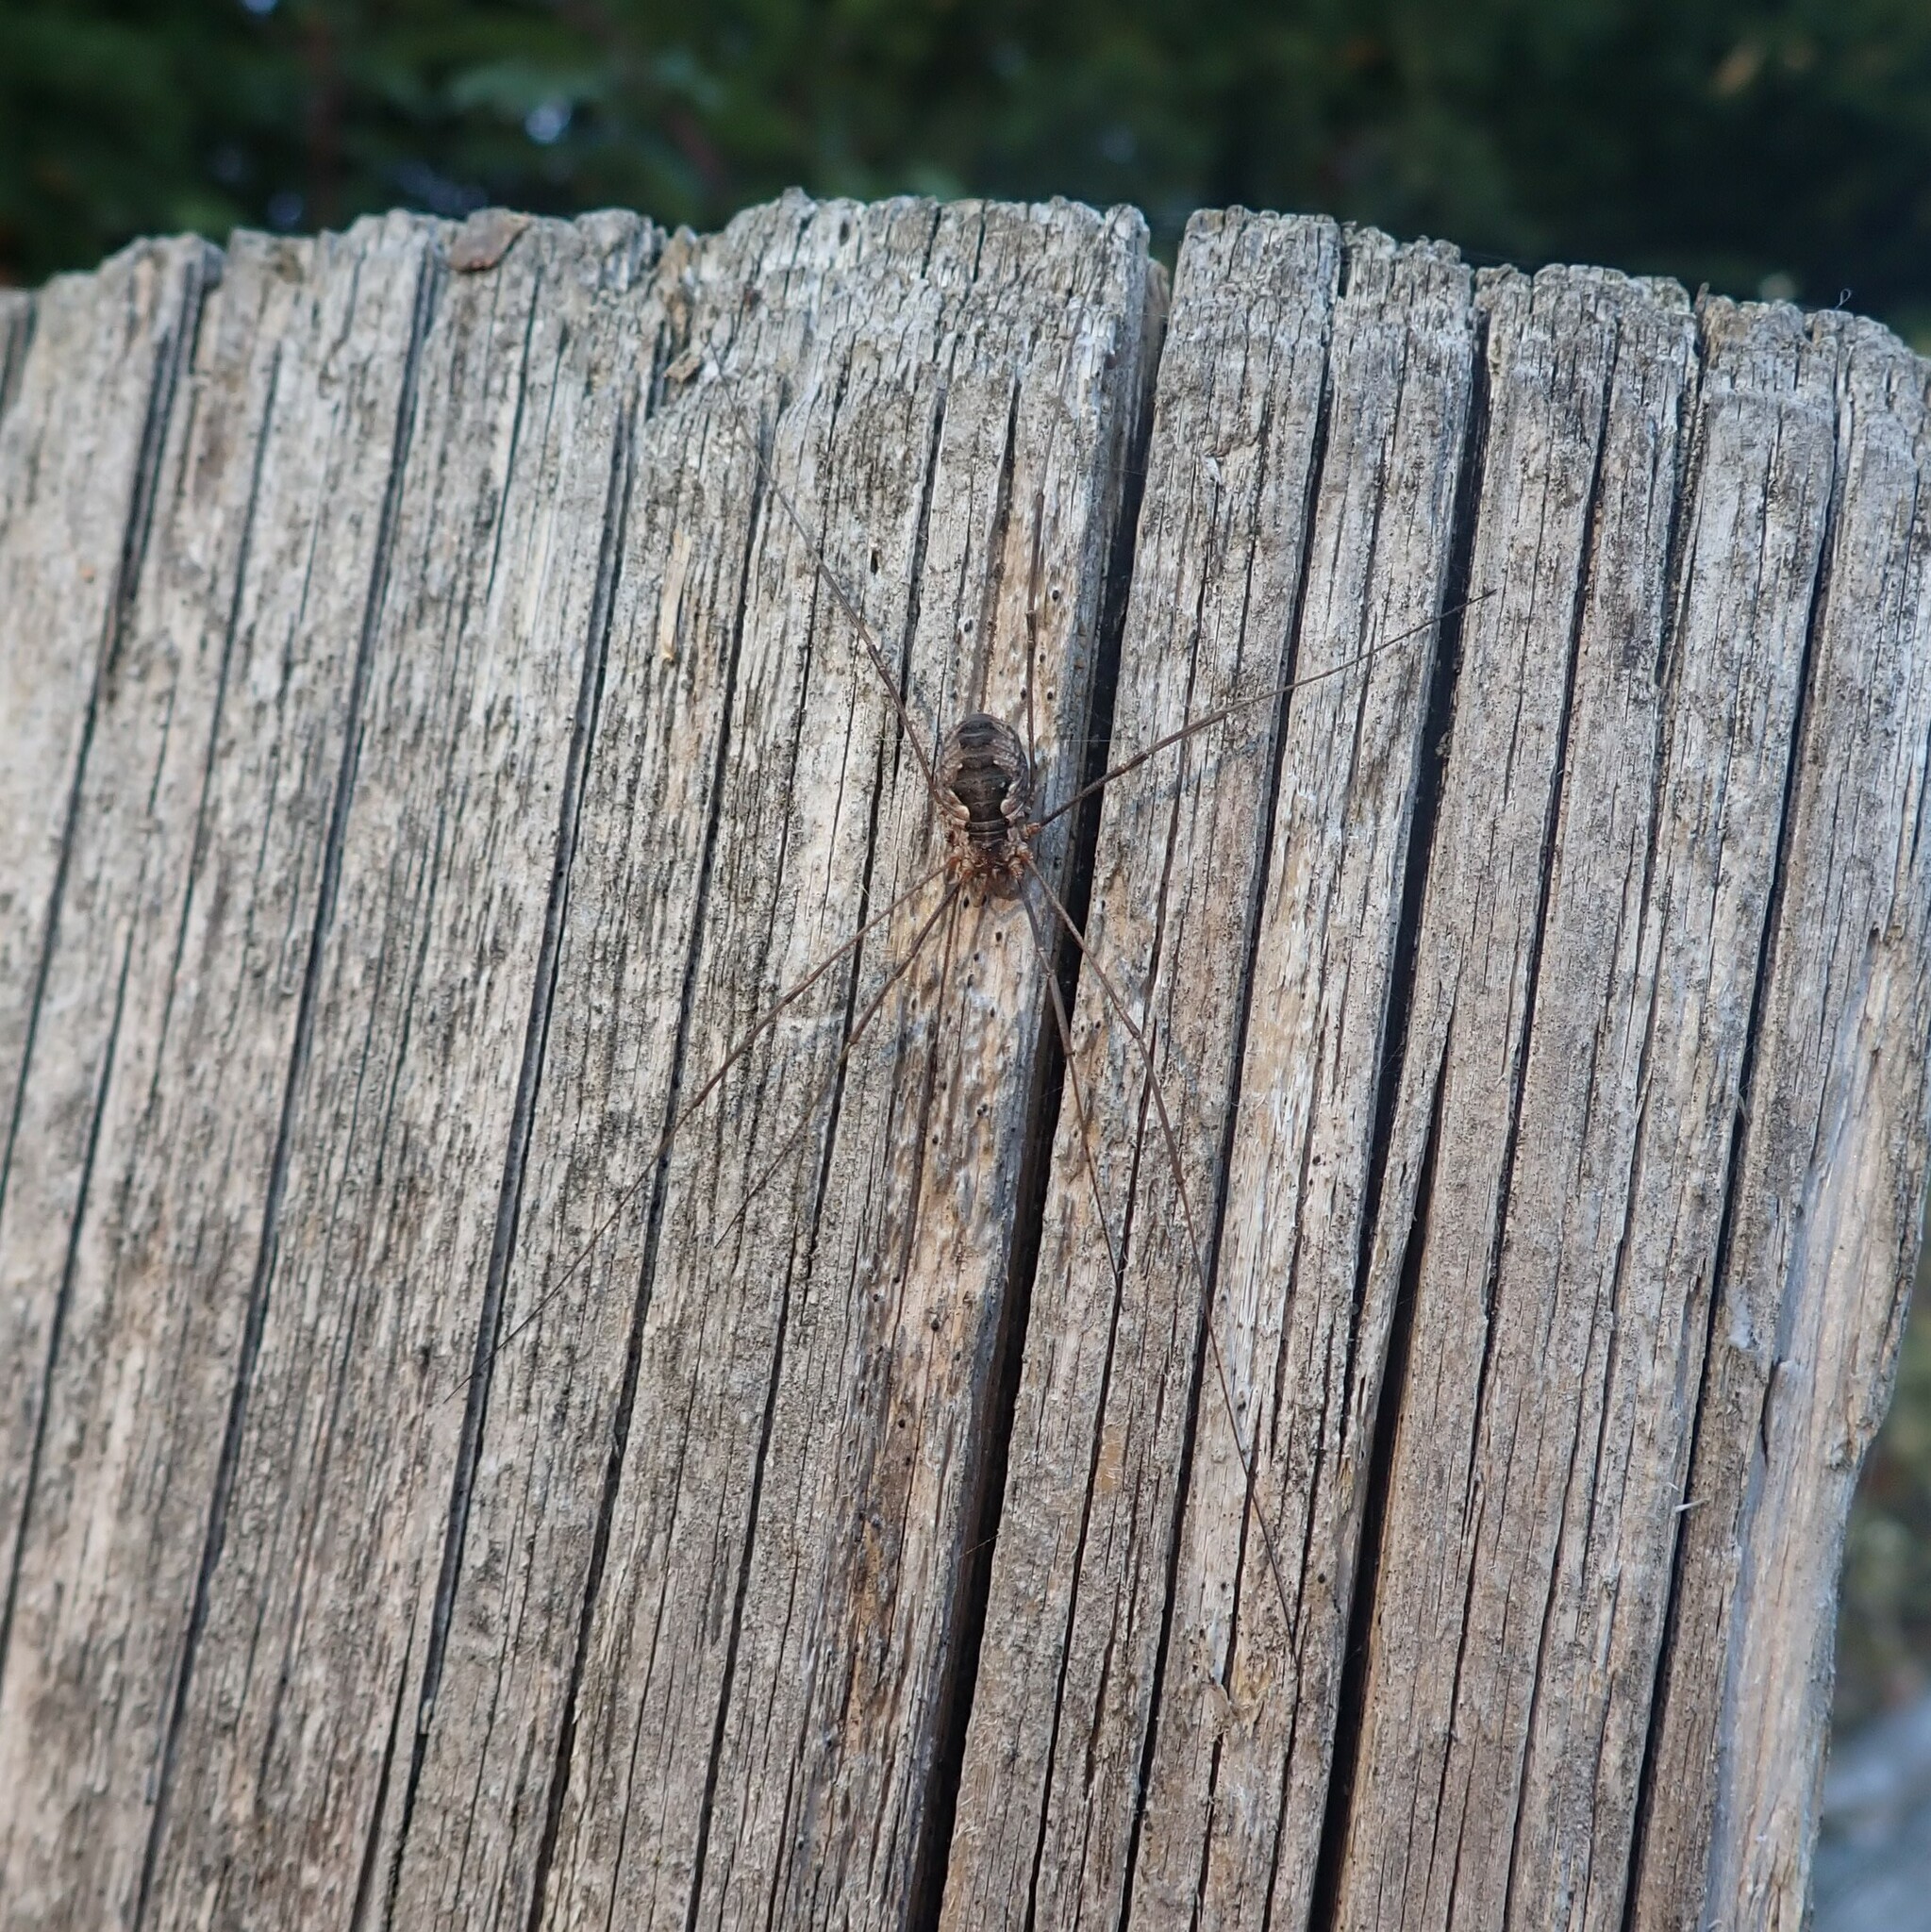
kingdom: Animalia
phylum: Arthropoda
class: Arachnida
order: Opiliones
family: Phalangiidae
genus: Phalangium
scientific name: Phalangium opilio
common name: Daddy longleg
